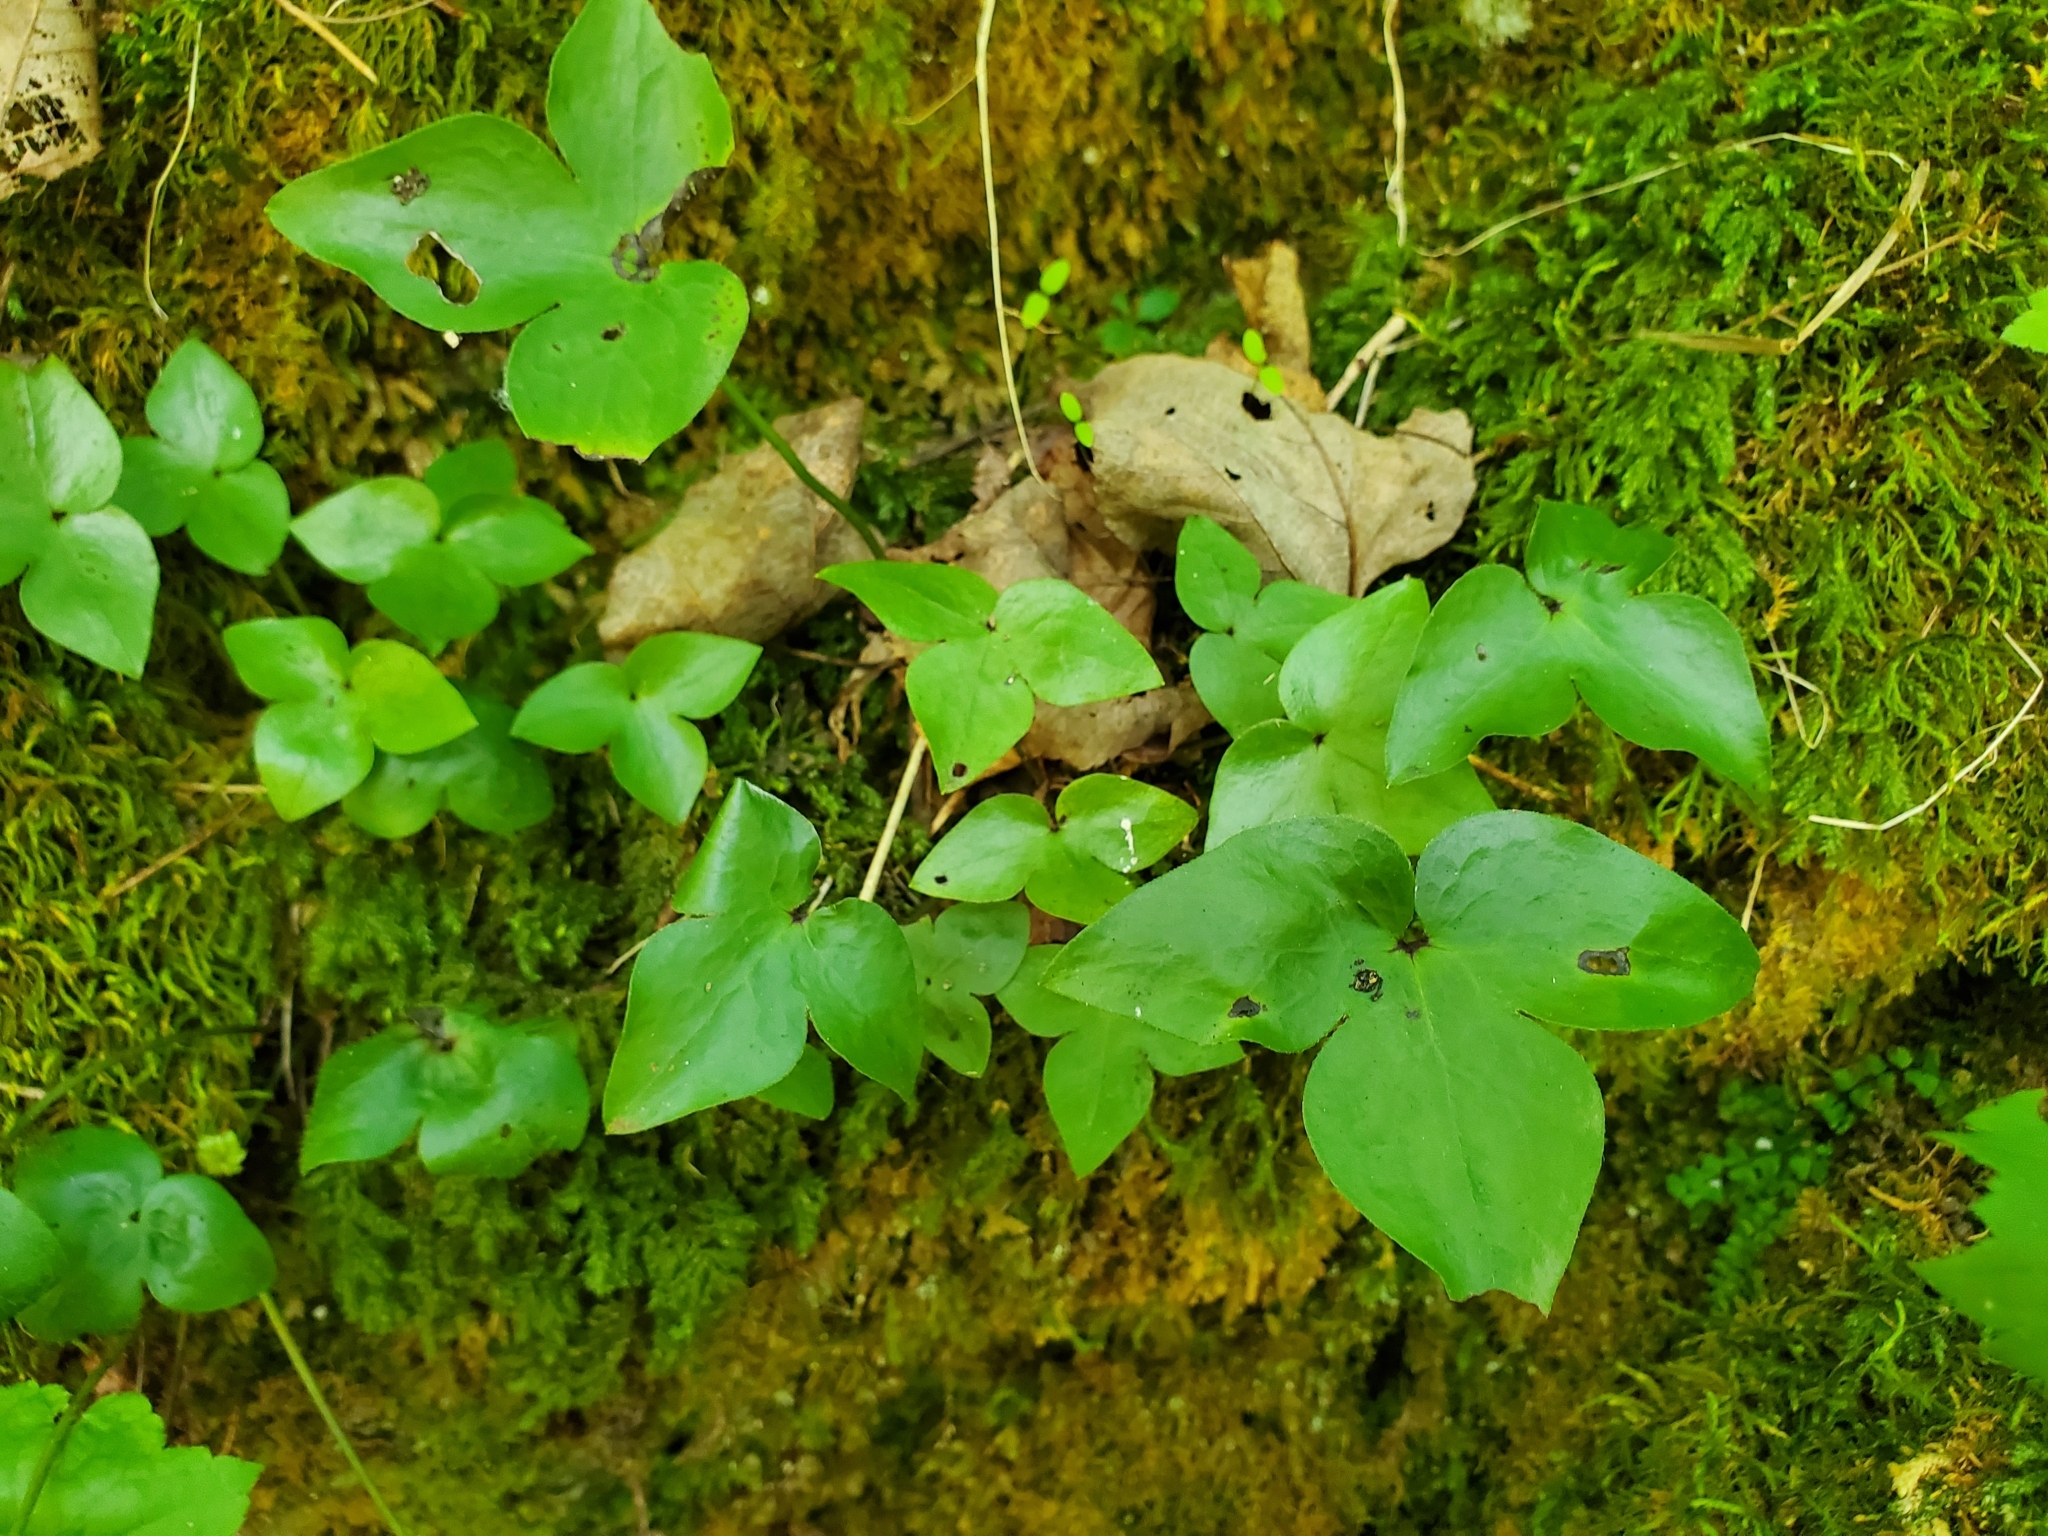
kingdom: Plantae
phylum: Tracheophyta
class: Magnoliopsida
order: Ranunculales
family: Ranunculaceae
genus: Hepatica
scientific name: Hepatica acutiloba
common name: Sharp-lobed hepatica
